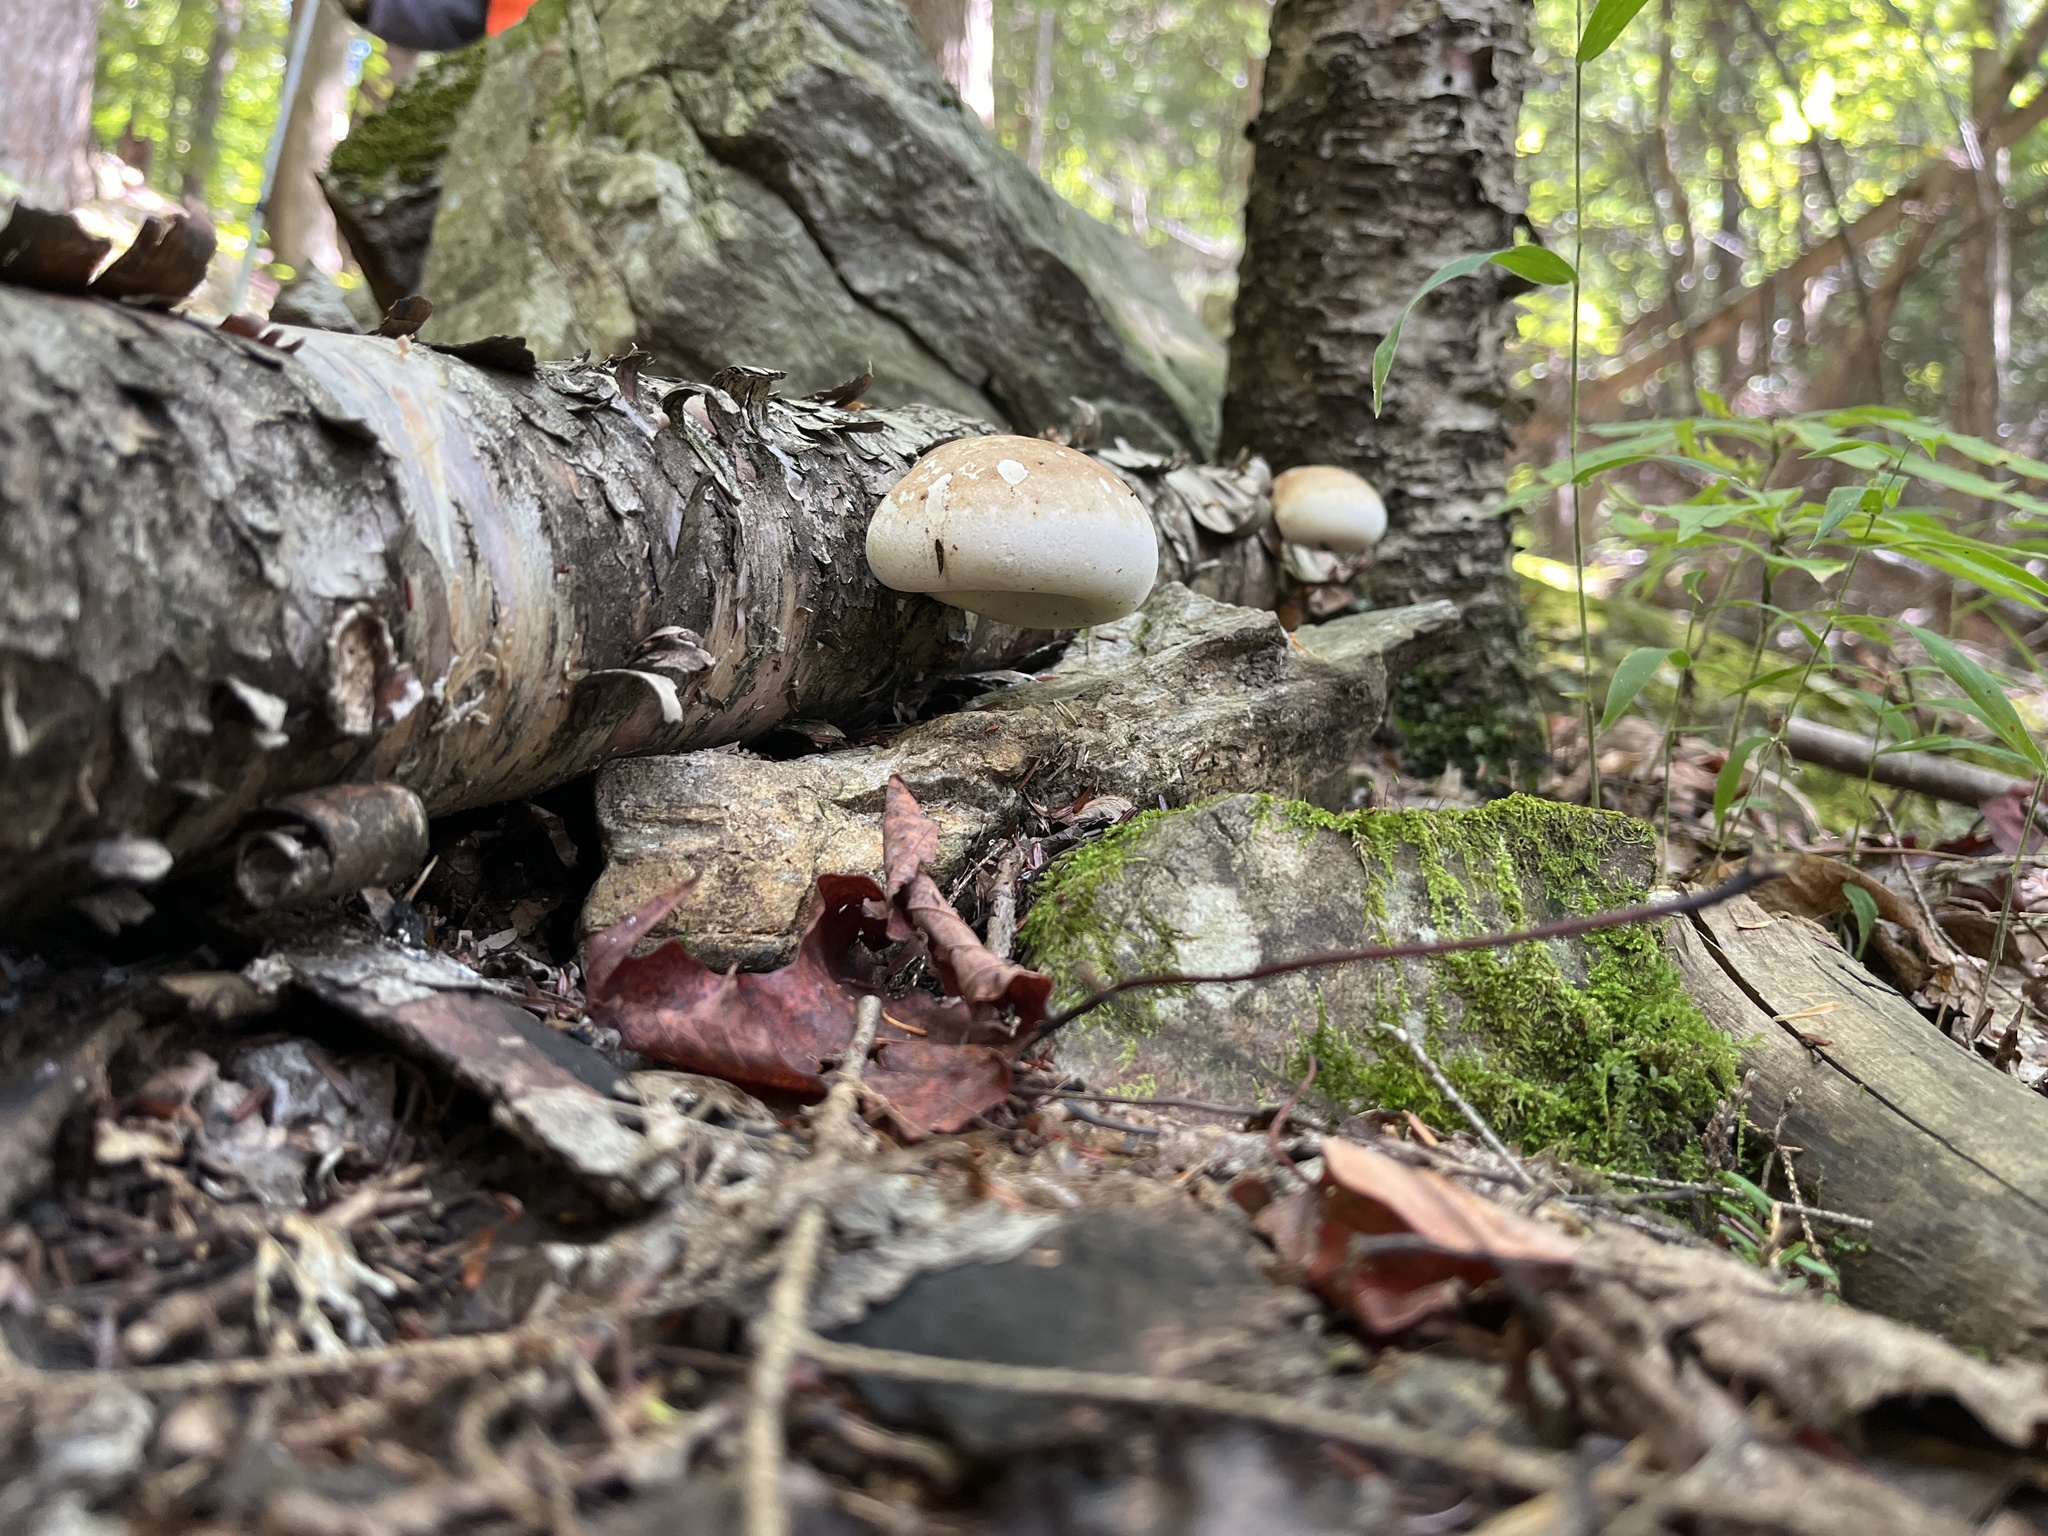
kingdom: Fungi
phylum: Basidiomycota
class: Agaricomycetes
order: Polyporales
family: Fomitopsidaceae
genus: Fomitopsis
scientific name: Fomitopsis betulina
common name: Birch polypore
